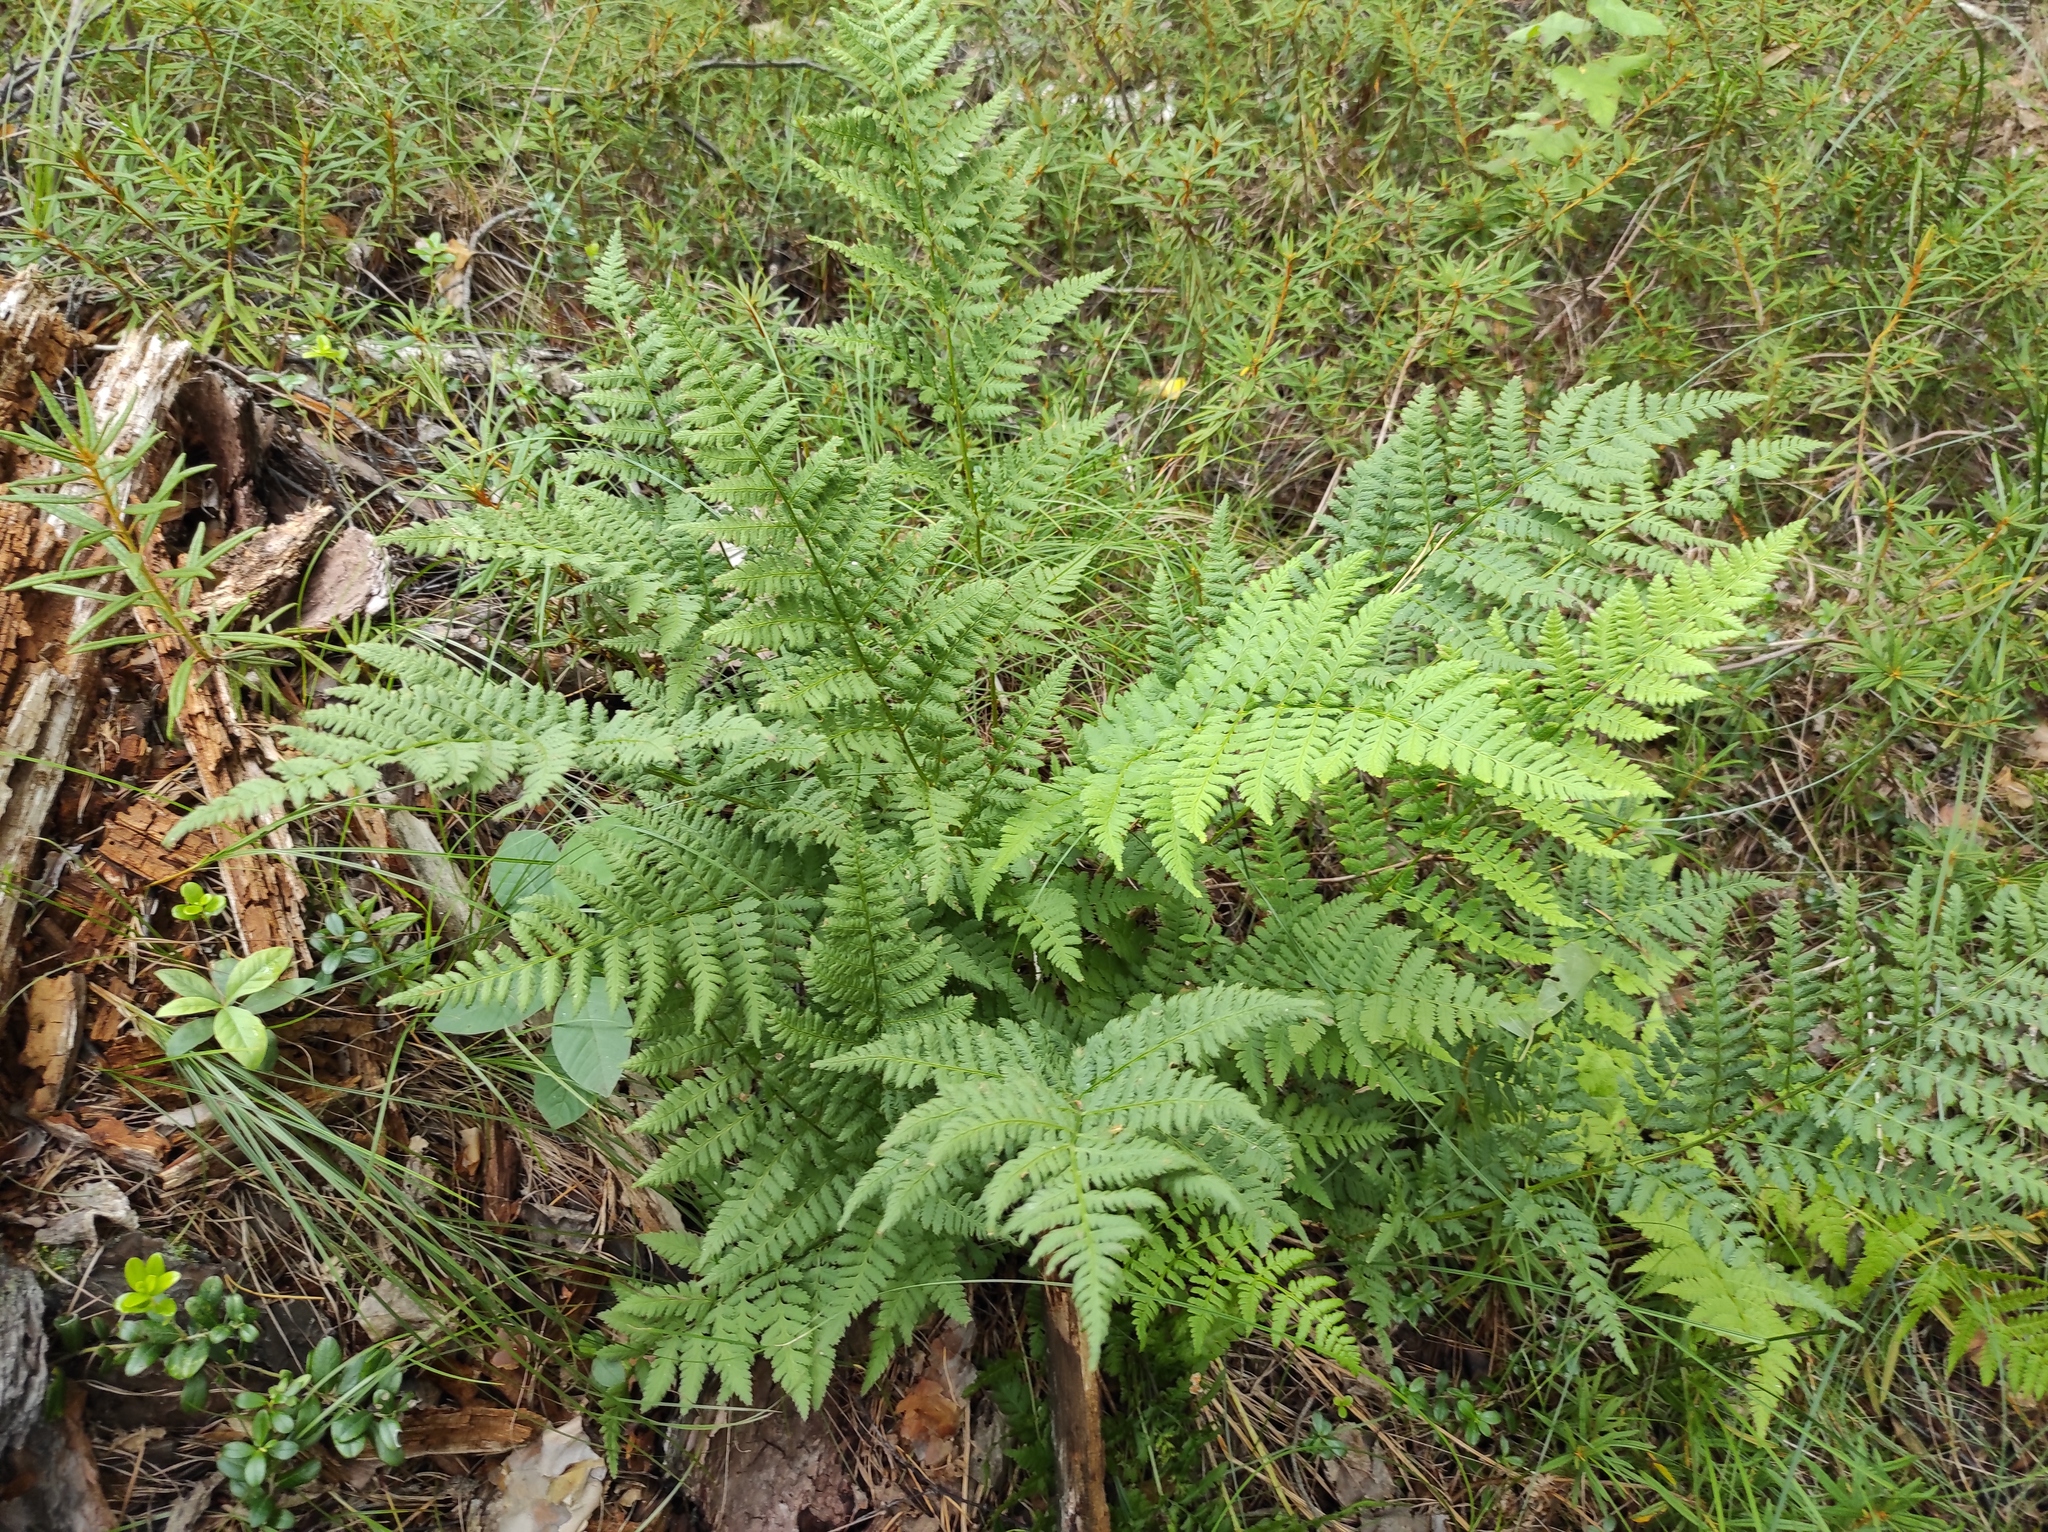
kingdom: Plantae
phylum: Tracheophyta
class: Polypodiopsida
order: Polypodiales
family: Dryopteridaceae
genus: Dryopteris
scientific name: Dryopteris carthusiana
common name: Narrow buckler-fern
